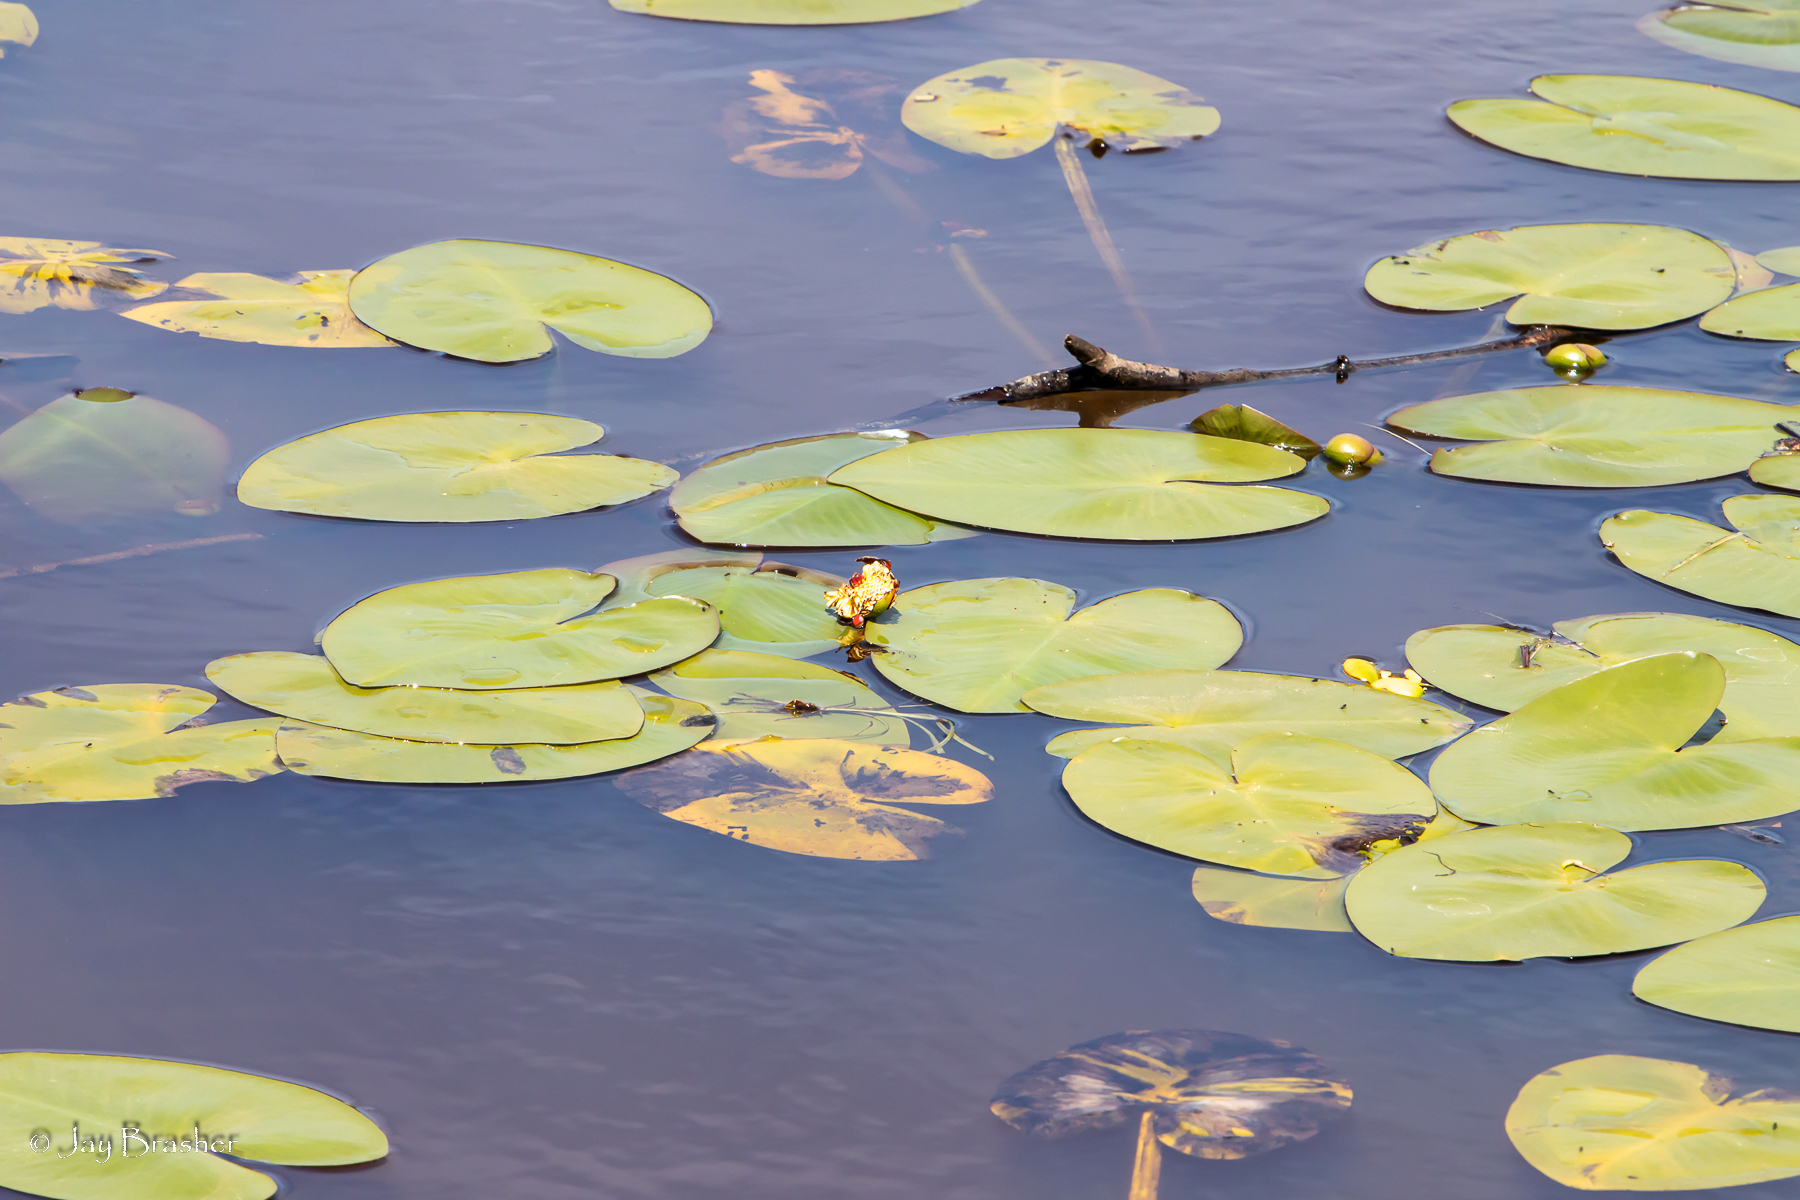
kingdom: Plantae
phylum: Tracheophyta
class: Magnoliopsida
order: Nymphaeales
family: Nymphaeaceae
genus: Nuphar
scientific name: Nuphar variegata
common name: Beaver-root
